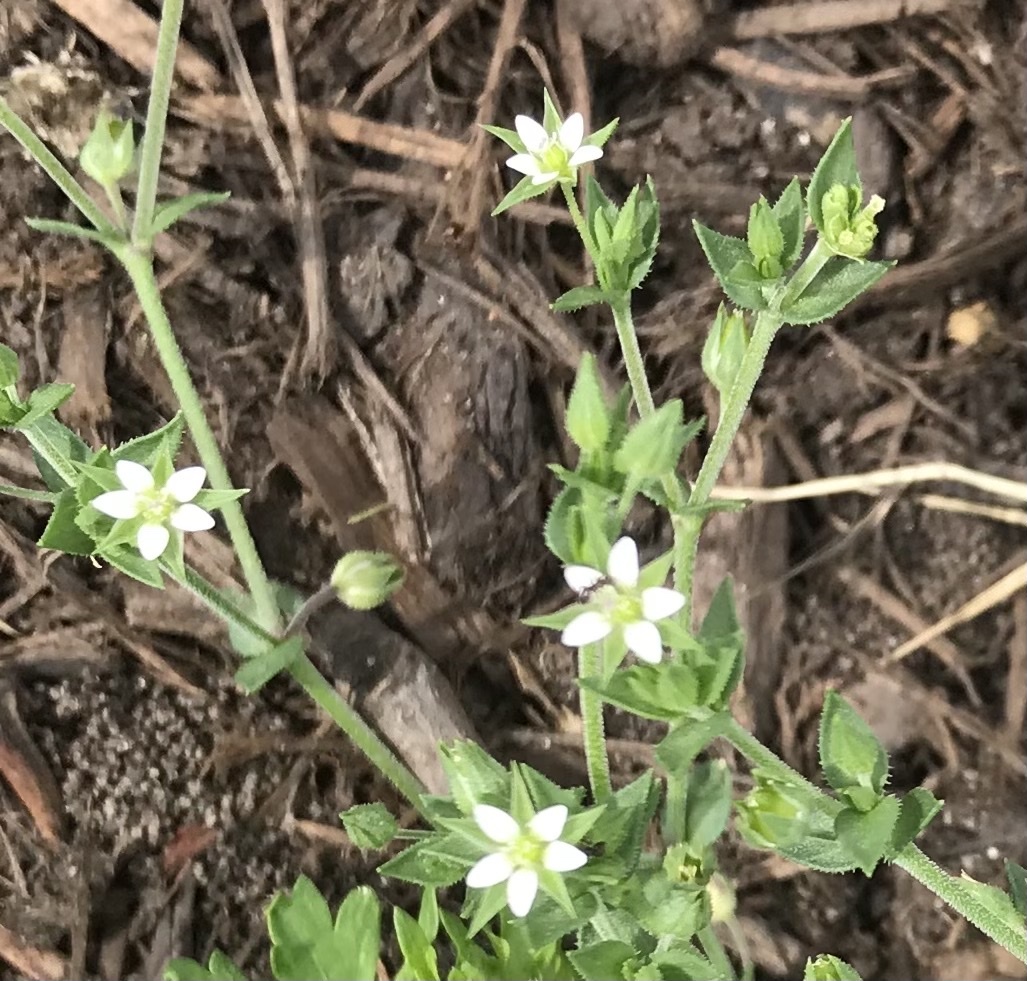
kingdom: Plantae
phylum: Tracheophyta
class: Magnoliopsida
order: Caryophyllales
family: Caryophyllaceae
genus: Arenaria
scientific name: Arenaria serpyllifolia
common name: Thyme-leaved sandwort
